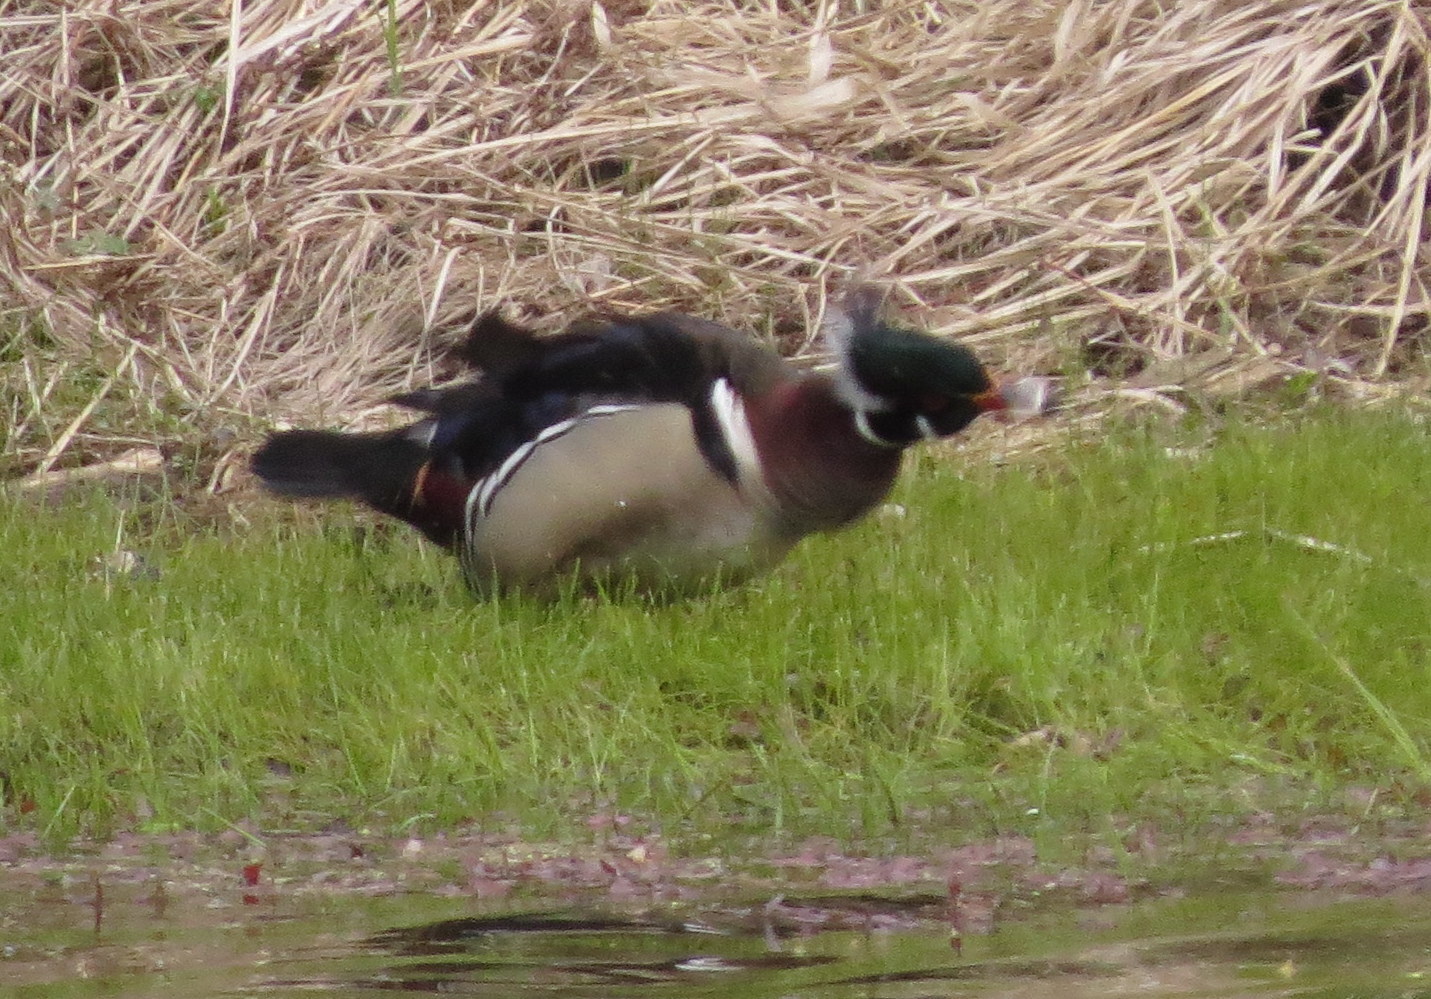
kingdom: Animalia
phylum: Chordata
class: Aves
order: Anseriformes
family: Anatidae
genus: Aix
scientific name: Aix sponsa
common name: Wood duck
